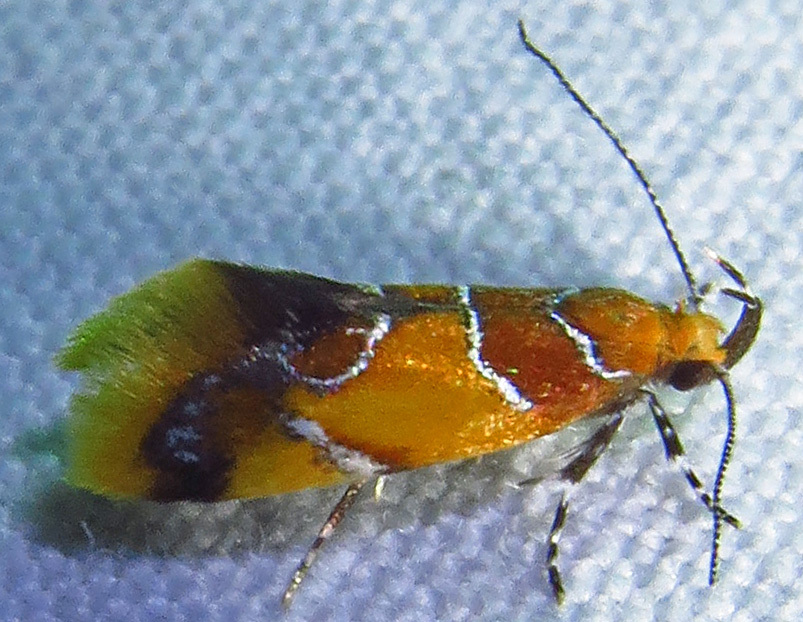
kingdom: Animalia
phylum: Arthropoda
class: Insecta
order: Lepidoptera
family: Oecophoridae
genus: Callima
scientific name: Callima argenticinctella
